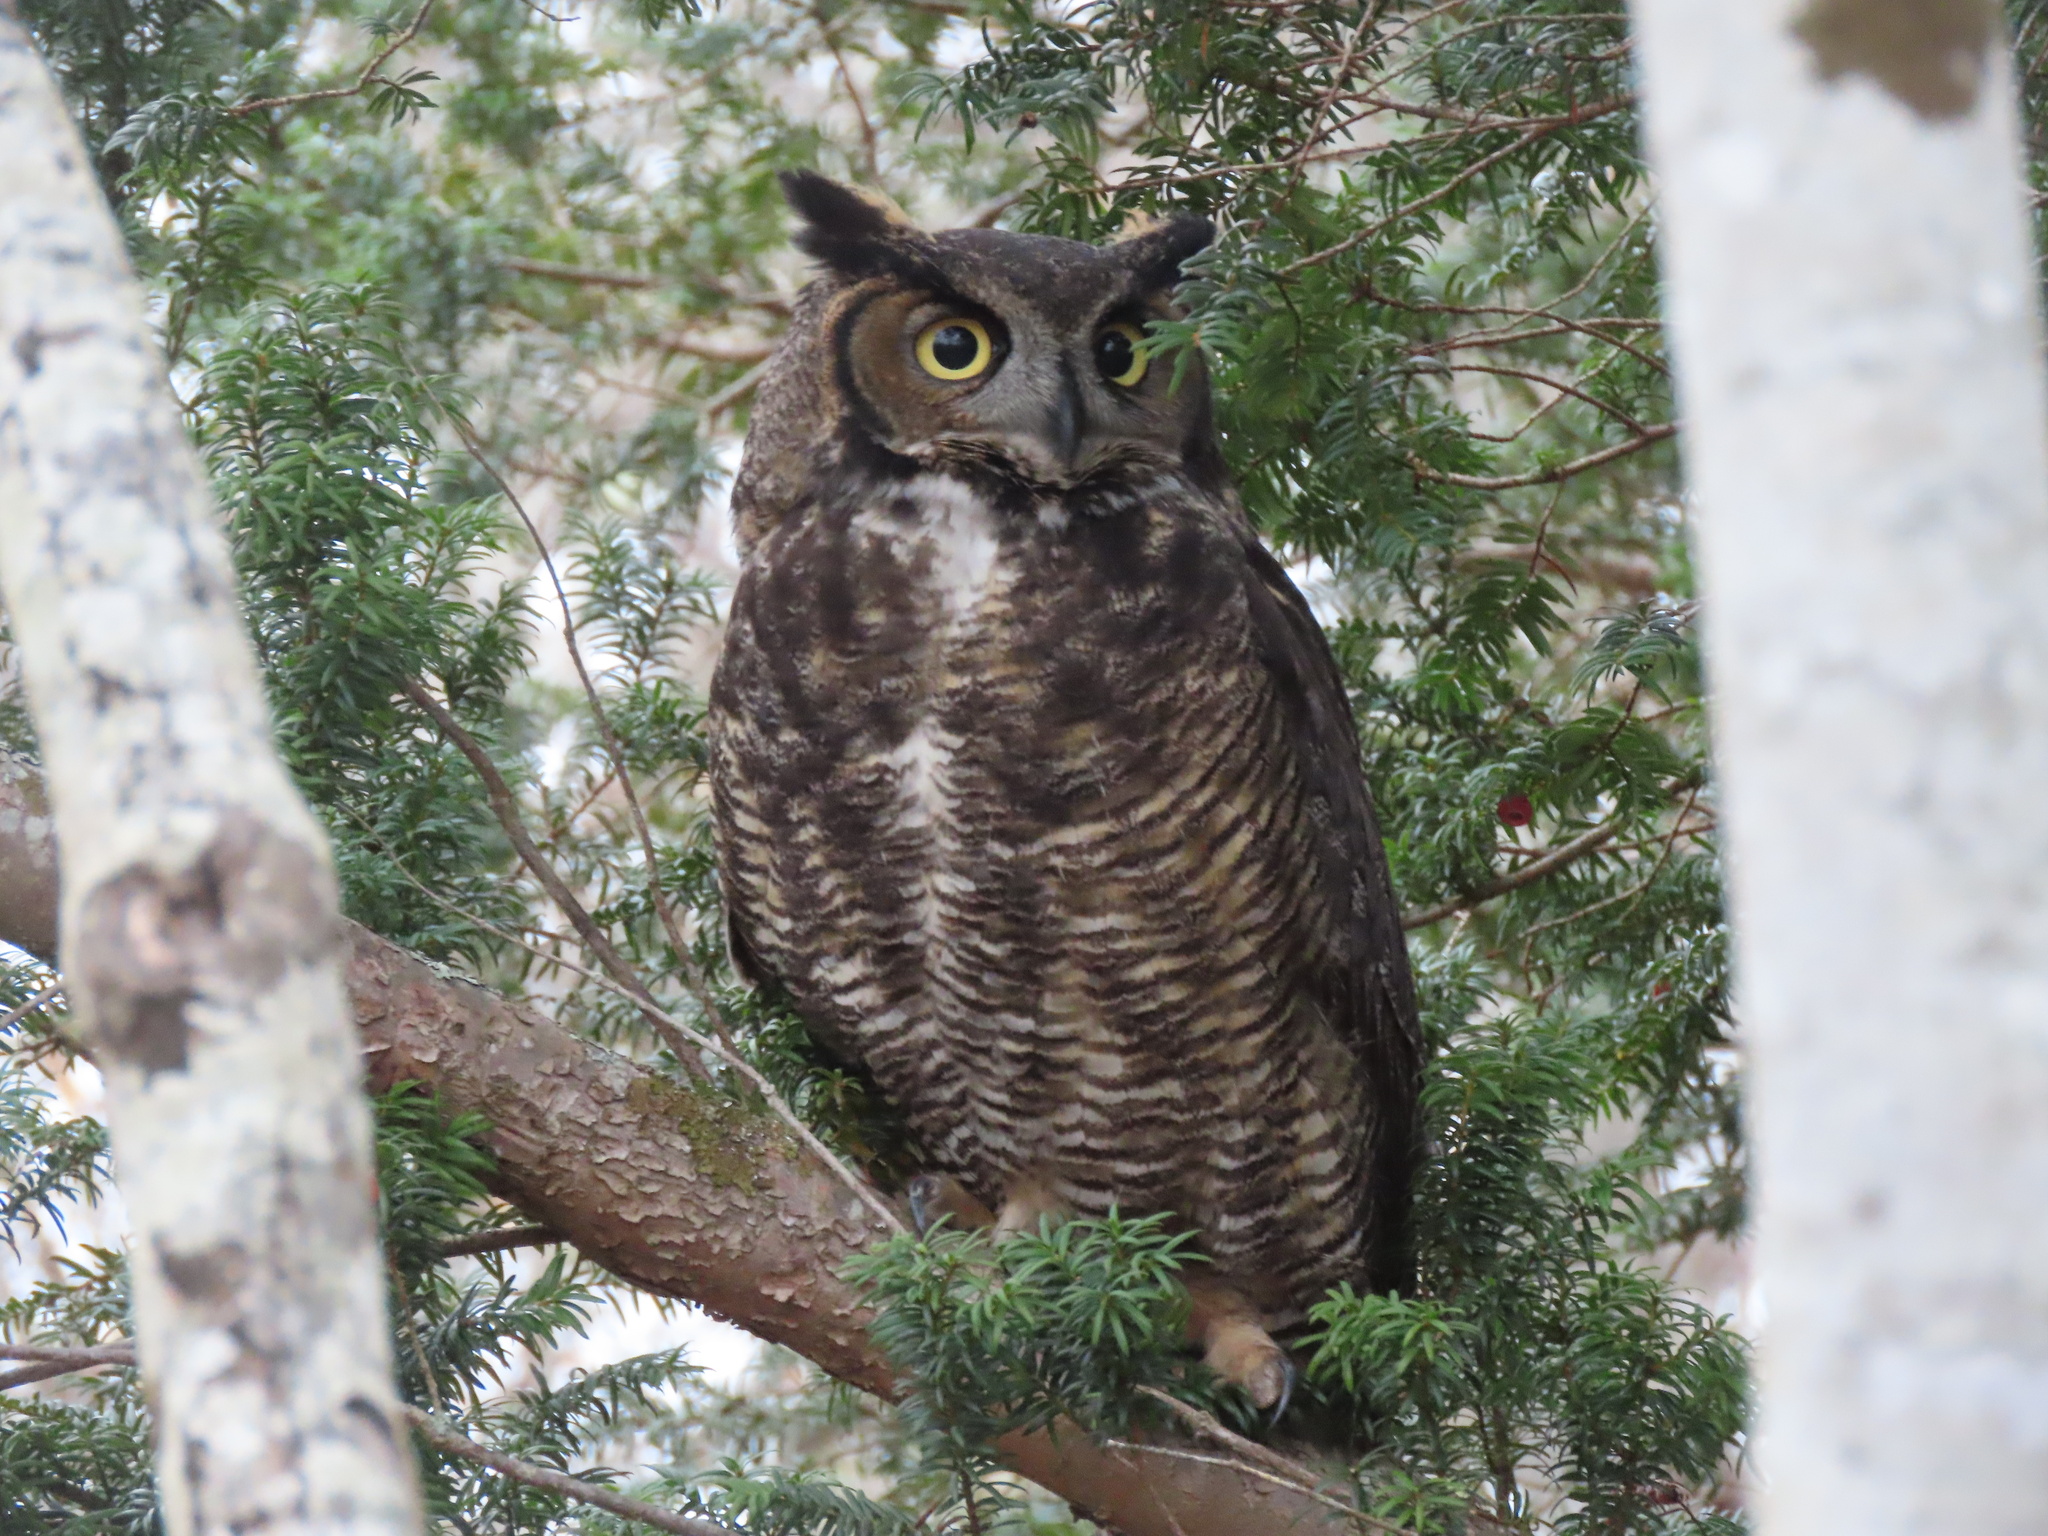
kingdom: Animalia
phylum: Chordata
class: Aves
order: Strigiformes
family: Strigidae
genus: Bubo
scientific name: Bubo virginianus
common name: Great horned owl
